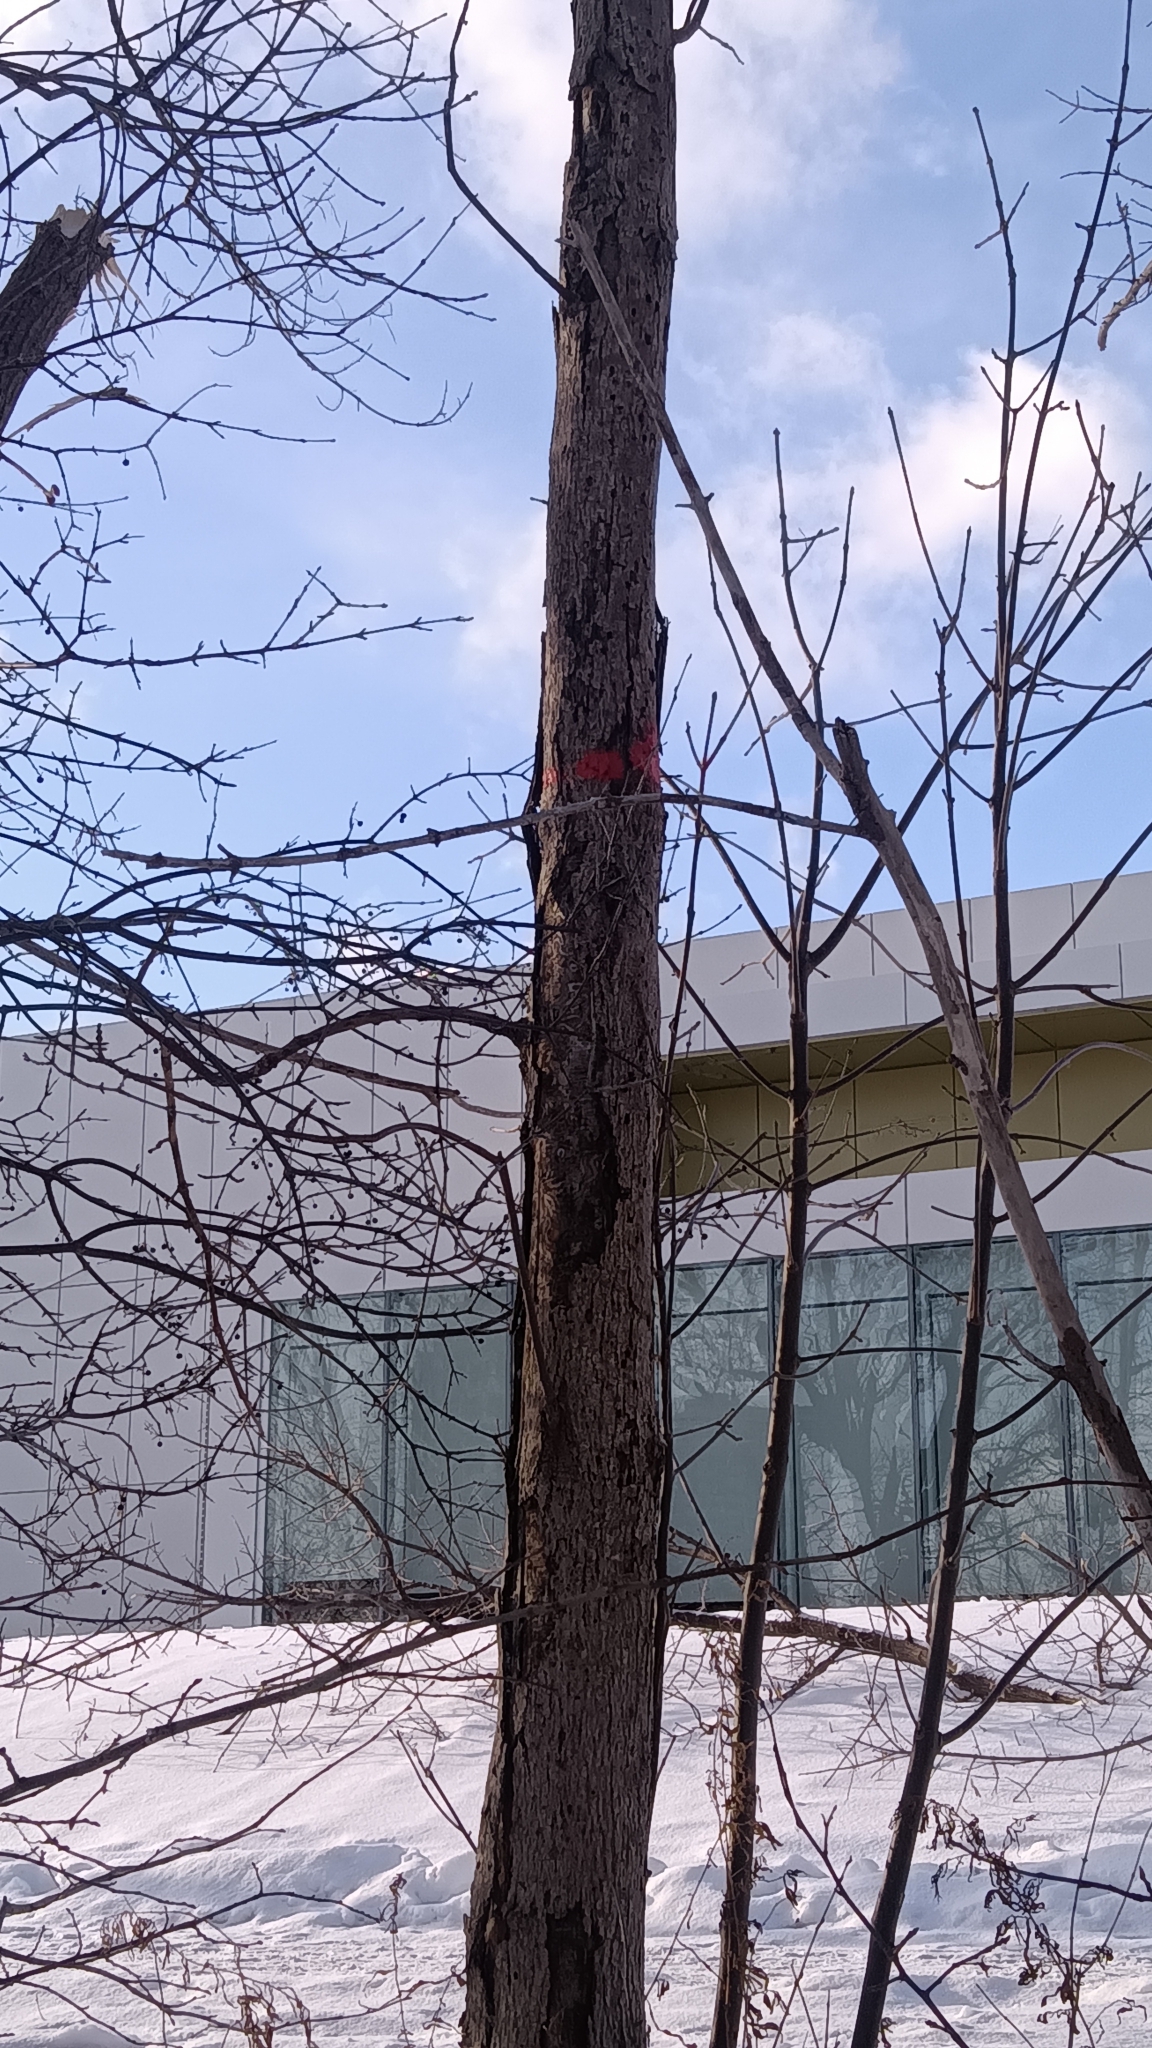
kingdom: Plantae
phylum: Tracheophyta
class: Magnoliopsida
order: Lamiales
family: Oleaceae
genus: Fraxinus
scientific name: Fraxinus pennsylvanica
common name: Green ash
